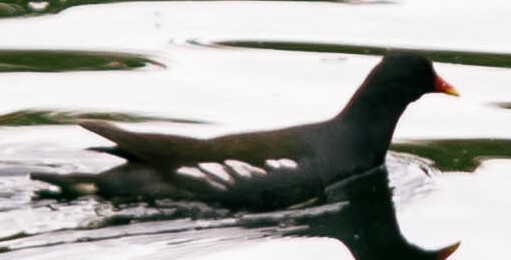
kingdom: Animalia
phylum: Chordata
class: Aves
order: Gruiformes
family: Rallidae
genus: Gallinula
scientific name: Gallinula chloropus
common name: Common moorhen
